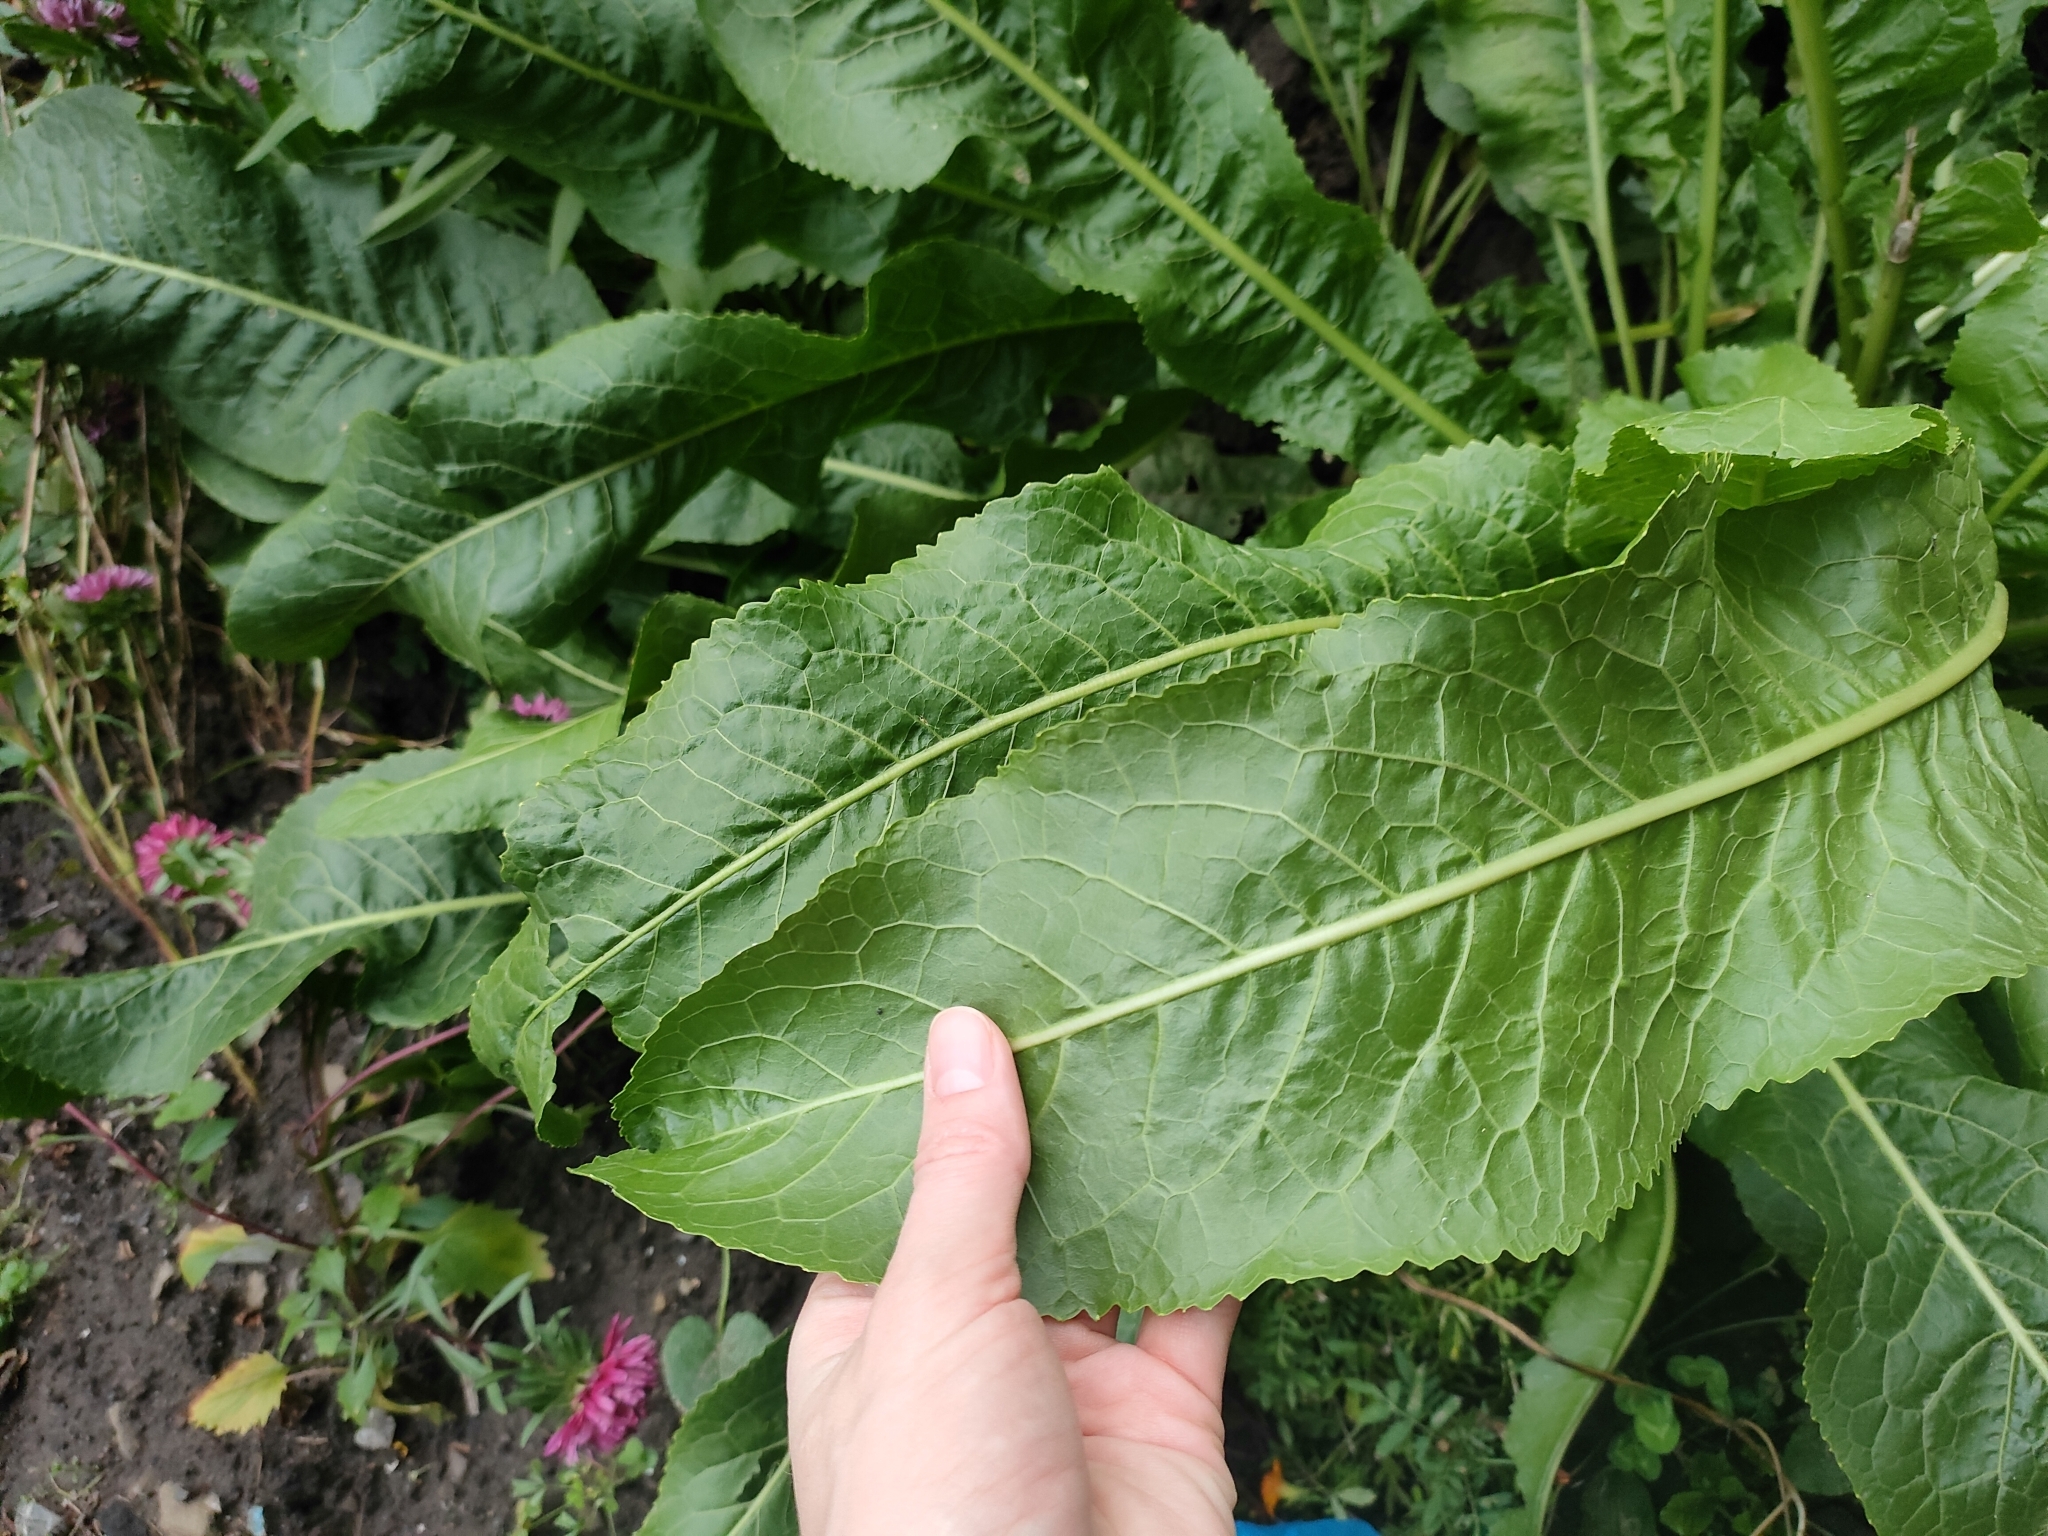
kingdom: Plantae
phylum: Tracheophyta
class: Magnoliopsida
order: Brassicales
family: Brassicaceae
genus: Armoracia
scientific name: Armoracia rusticana
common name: Horseradish
